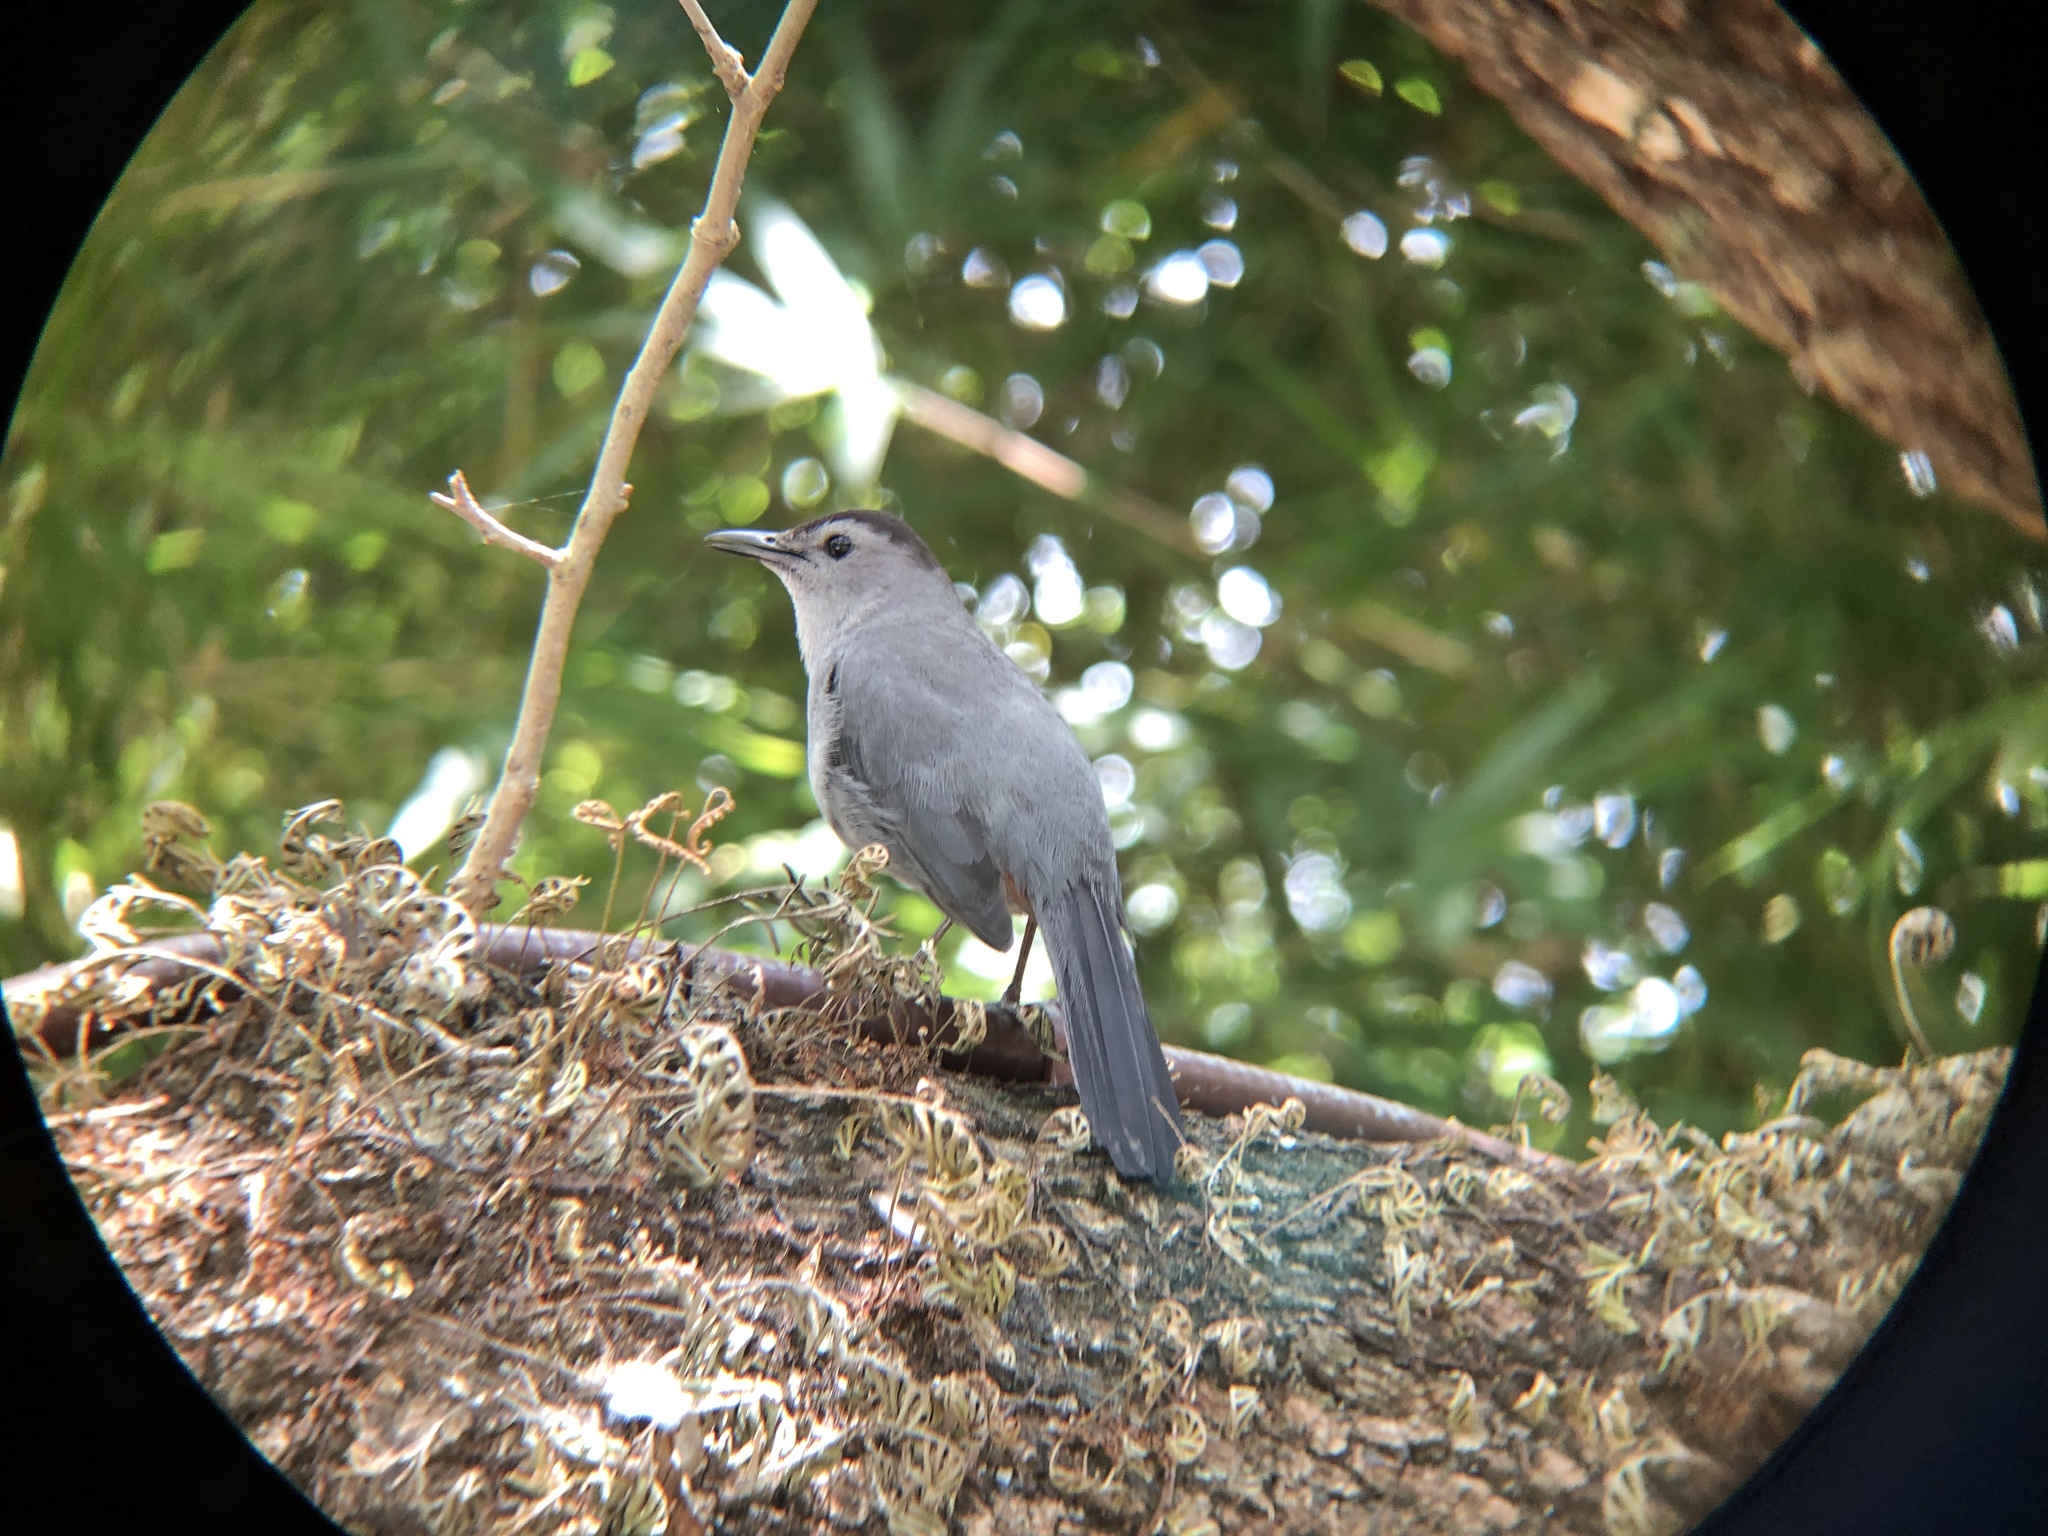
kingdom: Animalia
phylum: Chordata
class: Aves
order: Passeriformes
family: Mimidae
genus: Dumetella
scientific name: Dumetella carolinensis
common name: Gray catbird
